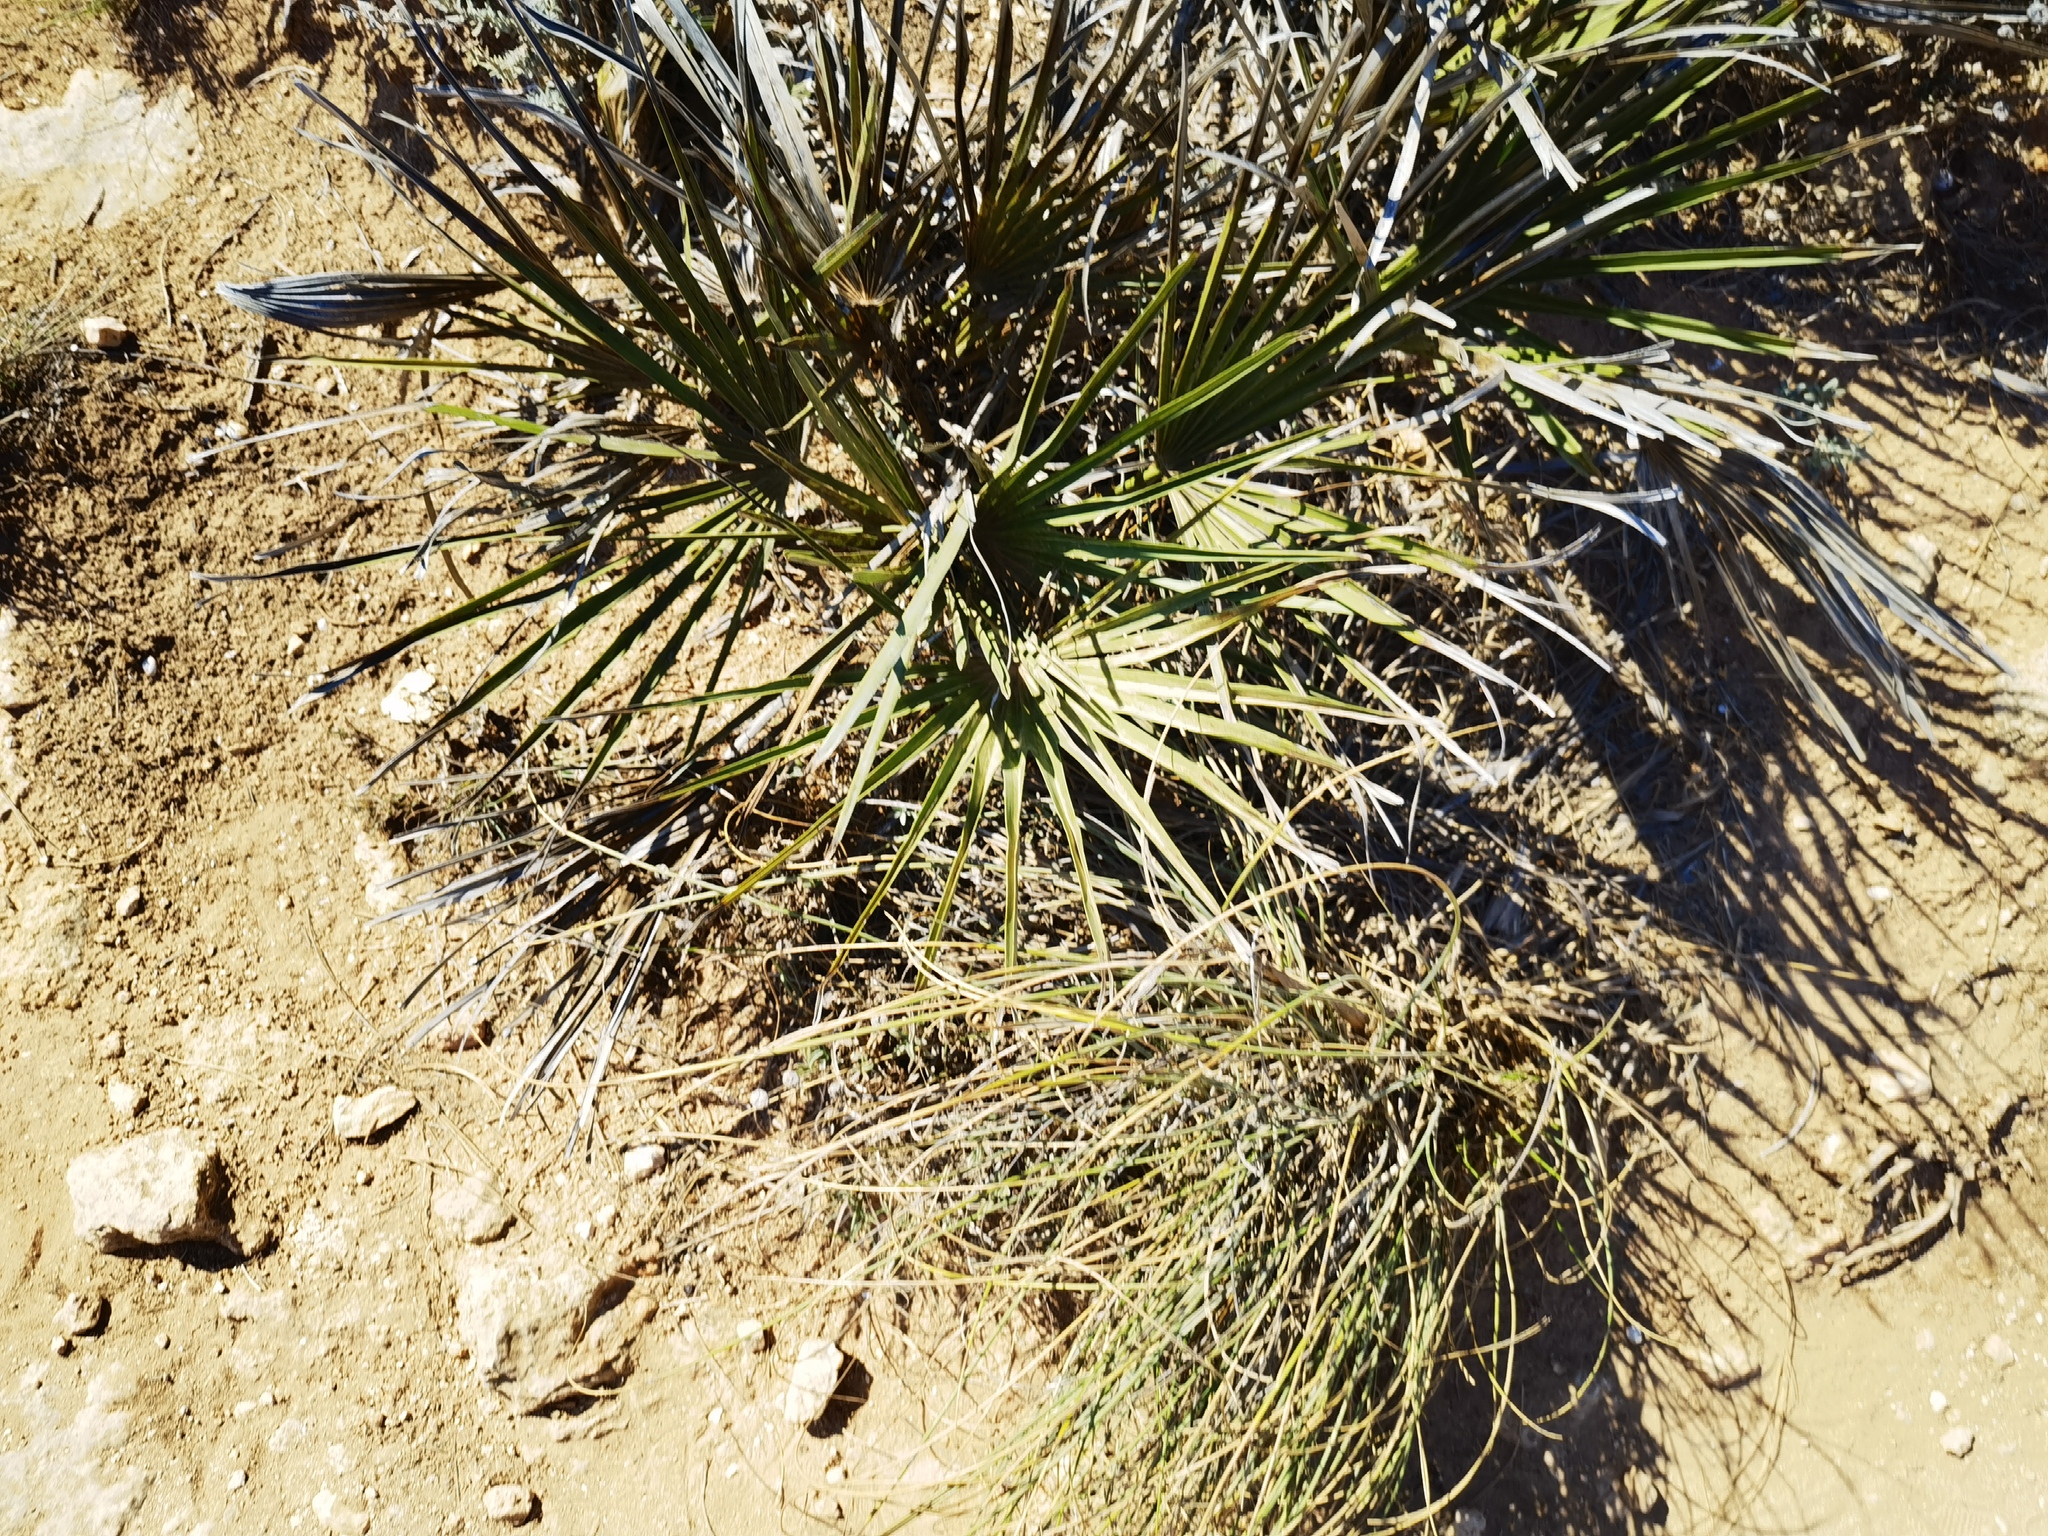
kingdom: Plantae
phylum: Tracheophyta
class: Liliopsida
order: Arecales
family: Arecaceae
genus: Chamaerops
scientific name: Chamaerops humilis
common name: Dwarf fan palm
